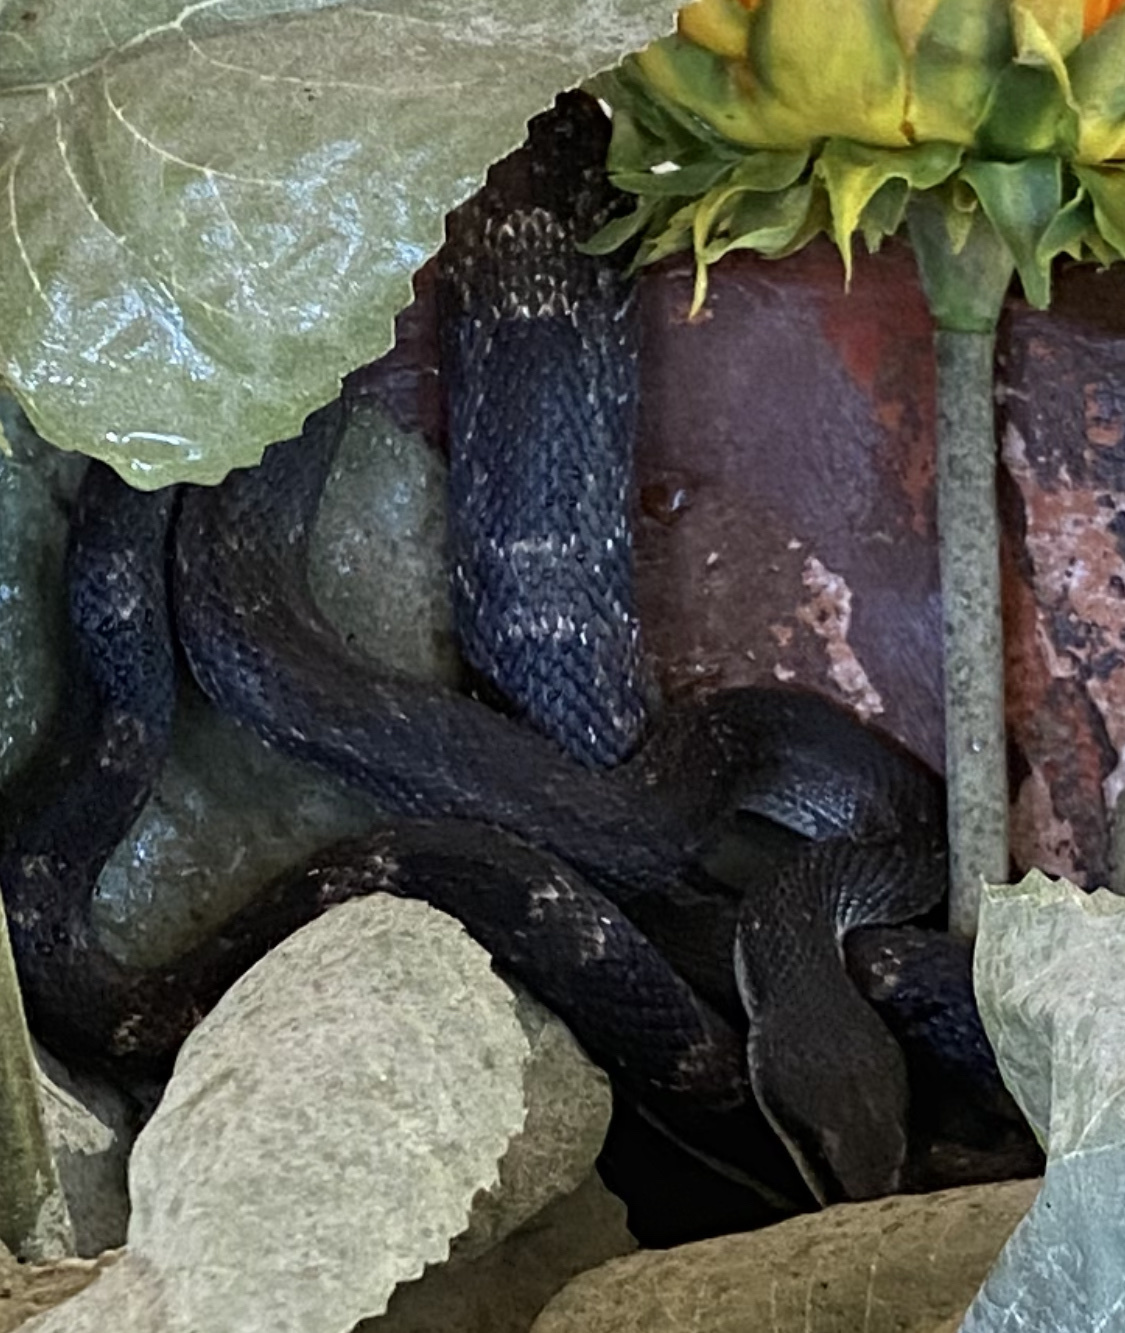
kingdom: Animalia
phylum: Chordata
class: Squamata
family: Colubridae
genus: Pantherophis
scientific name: Pantherophis obsoletus
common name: Black rat snake
